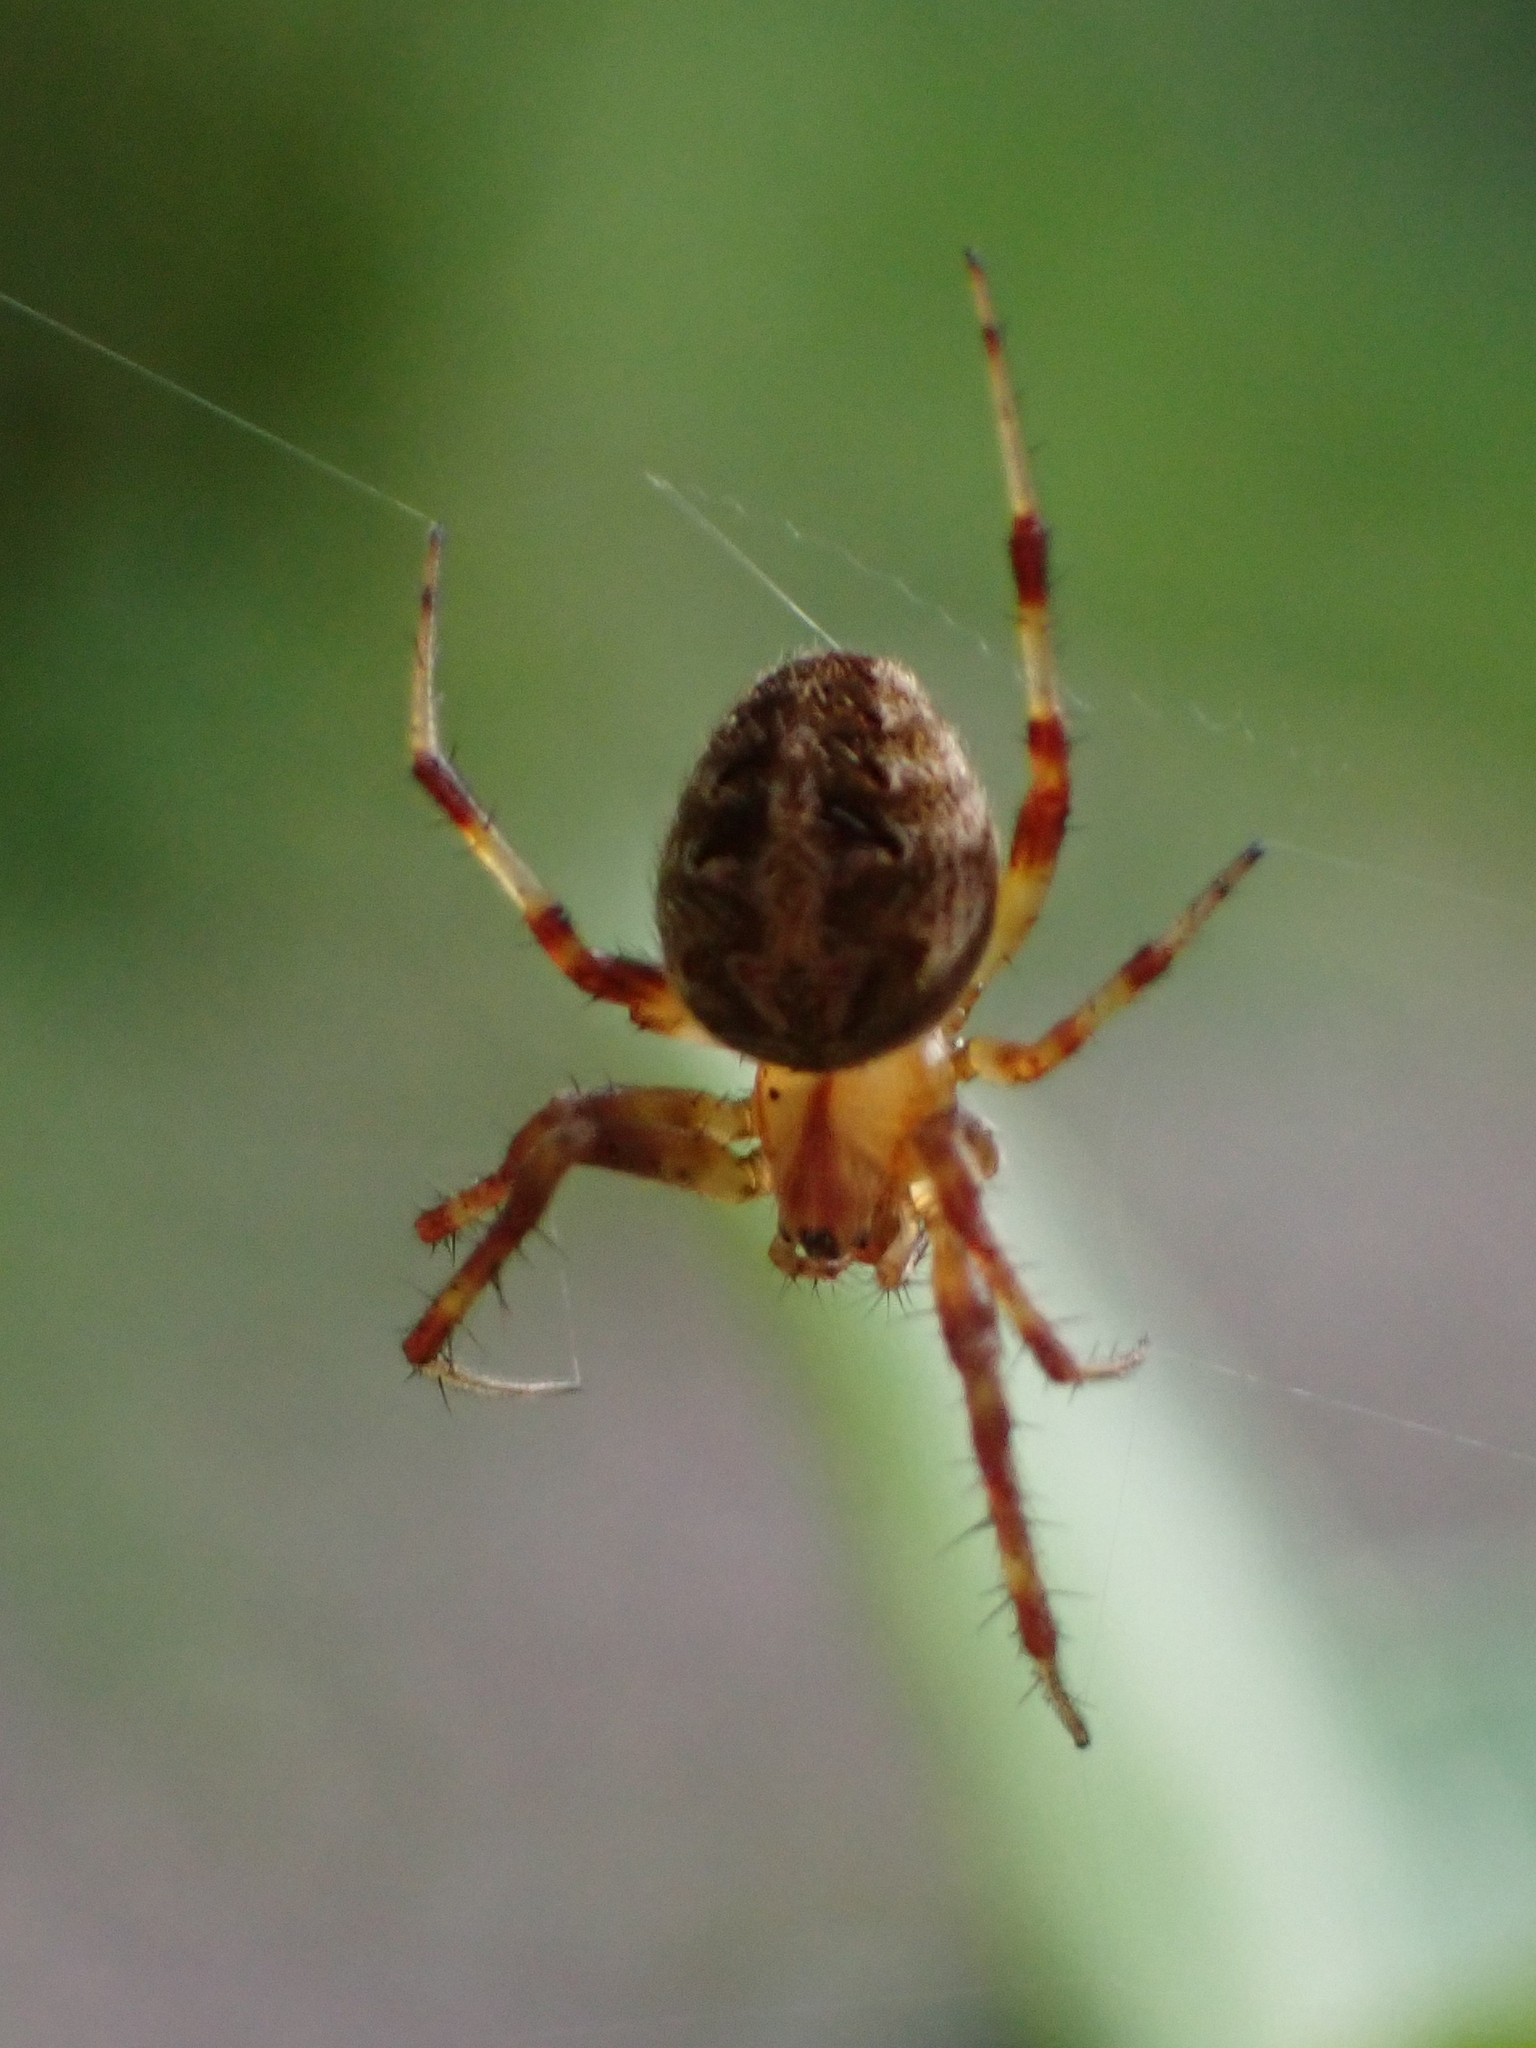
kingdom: Animalia
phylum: Arthropoda
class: Arachnida
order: Araneae
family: Araneidae
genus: Araneus
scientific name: Araneus diadematus
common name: Cross orbweaver
